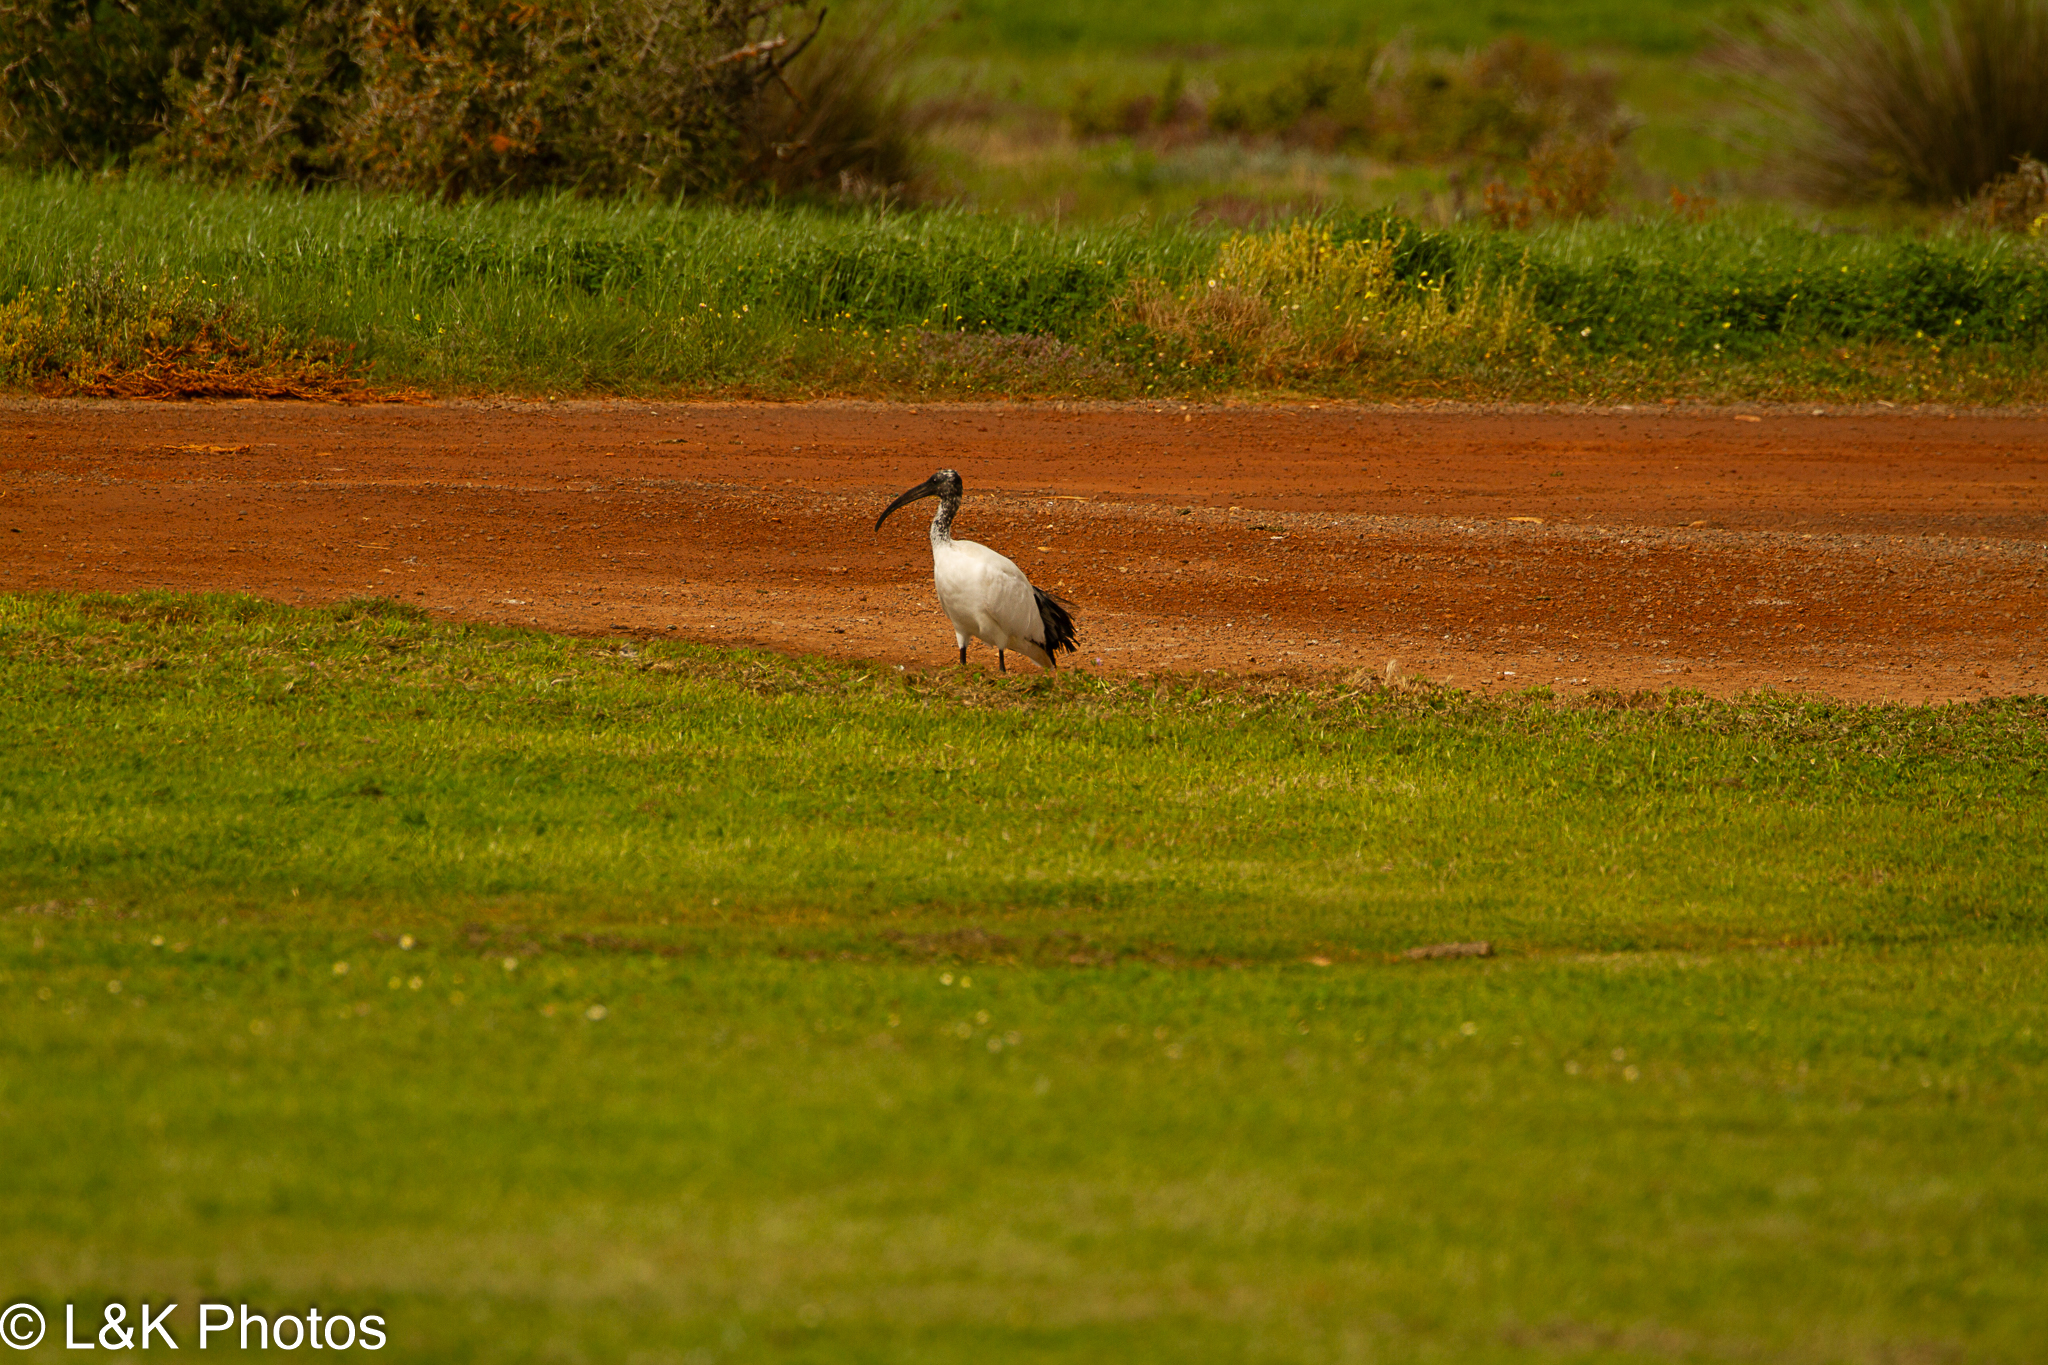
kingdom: Animalia
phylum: Chordata
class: Aves
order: Pelecaniformes
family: Threskiornithidae
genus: Threskiornis
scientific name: Threskiornis aethiopicus
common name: Sacred ibis
